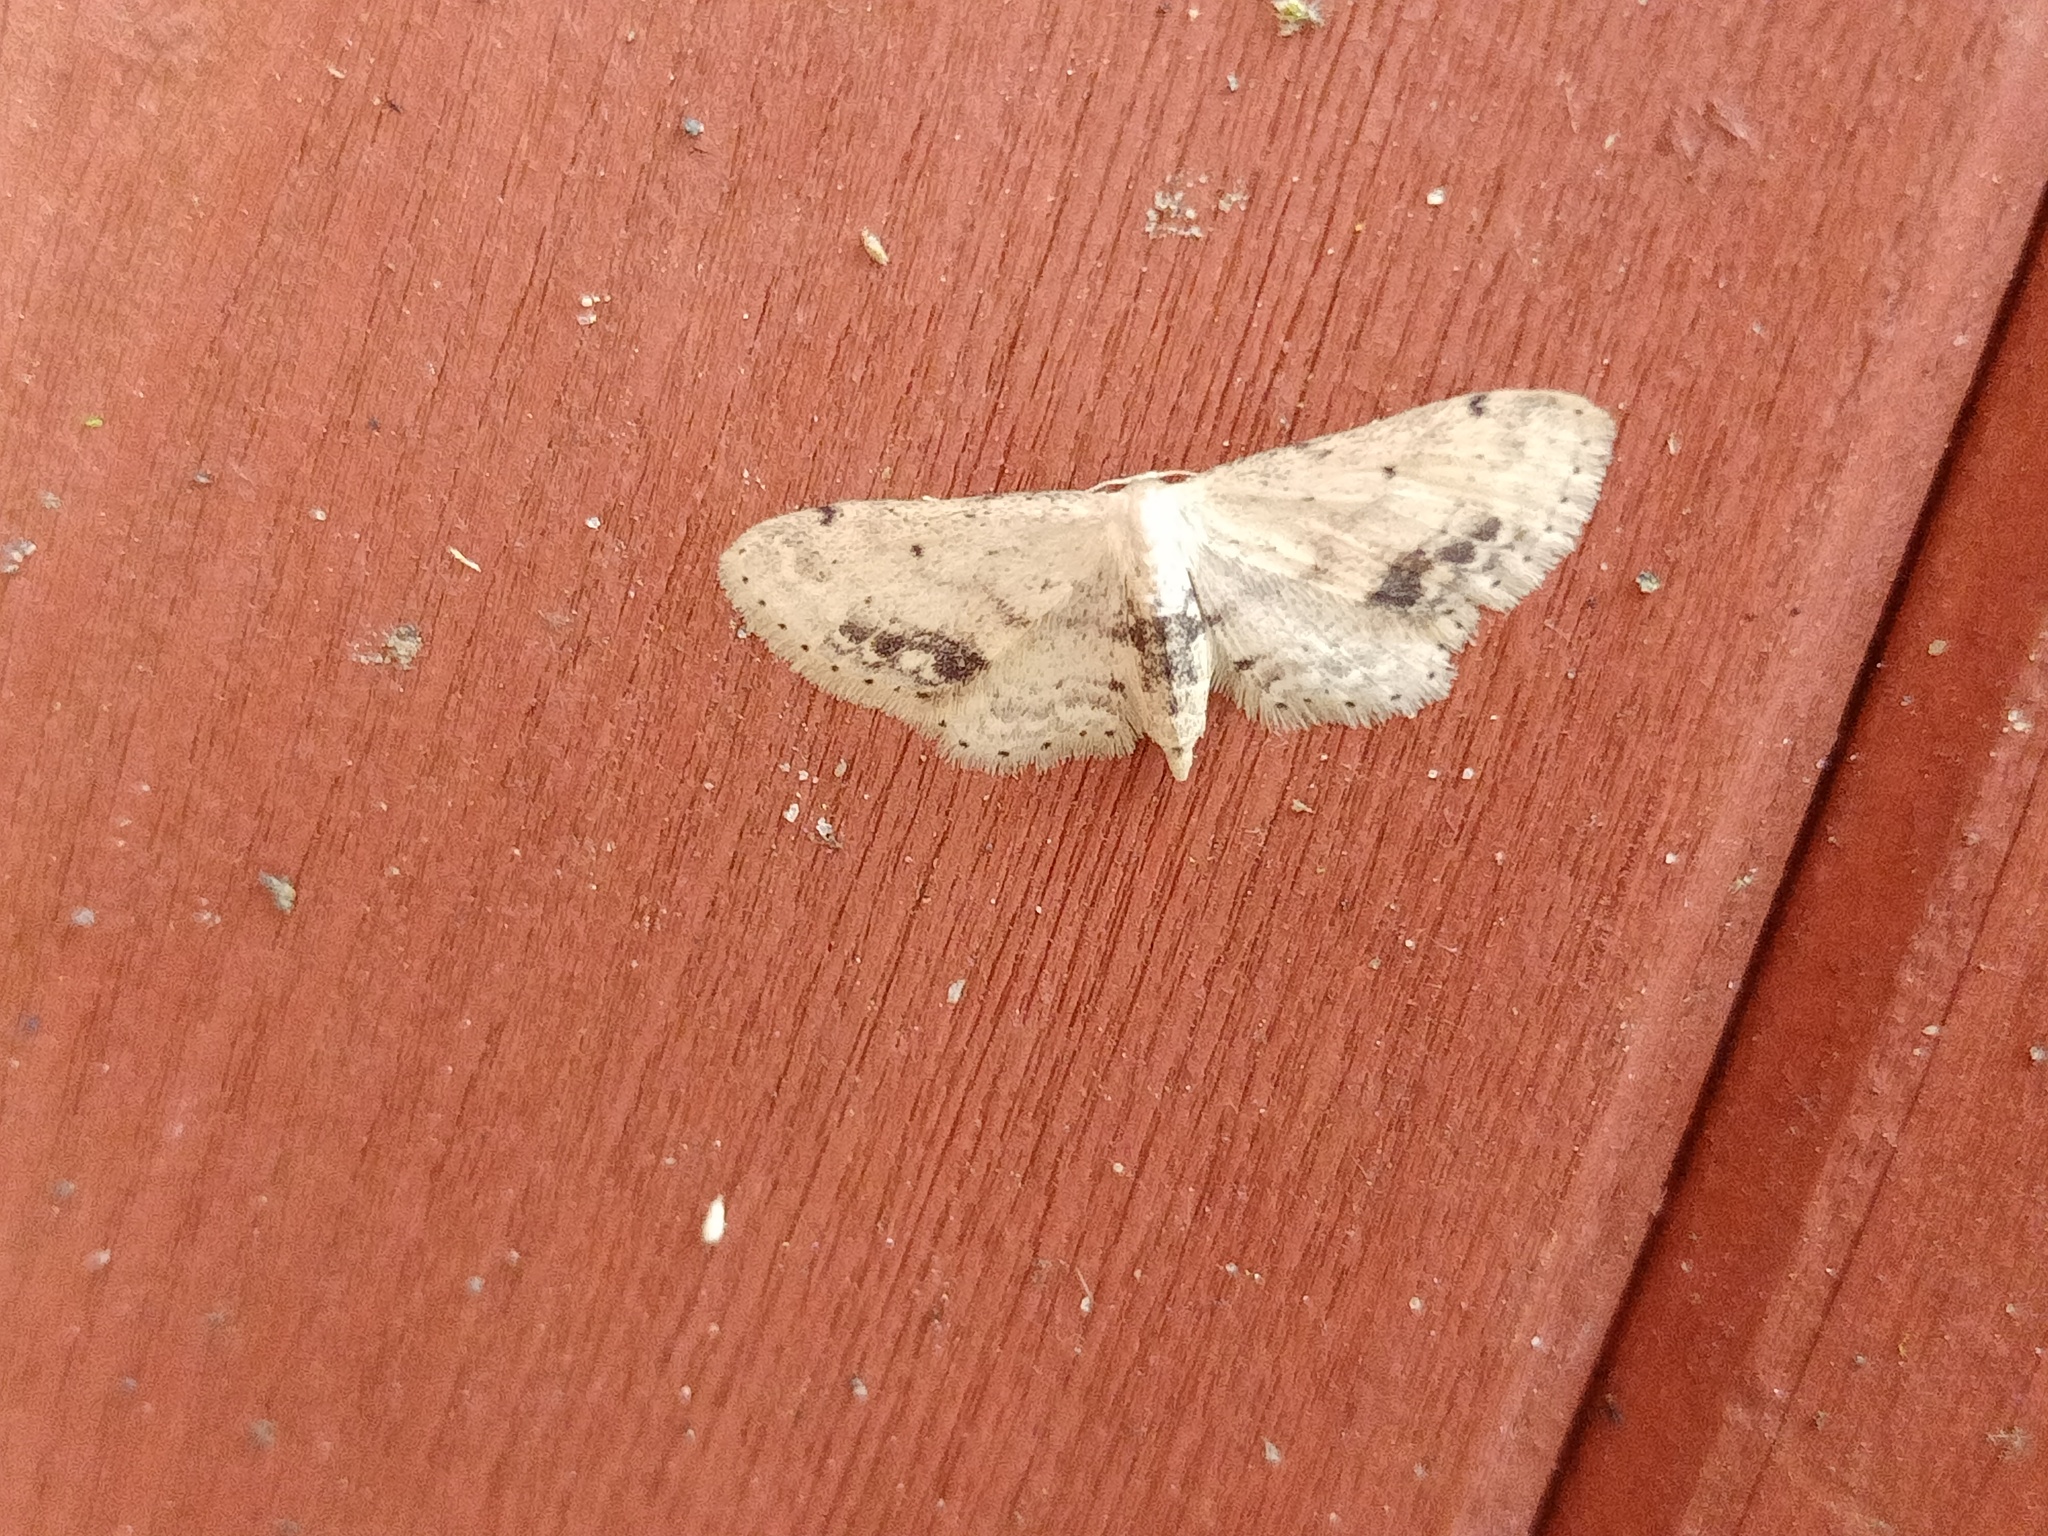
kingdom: Animalia
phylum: Arthropoda
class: Insecta
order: Lepidoptera
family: Geometridae
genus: Idaea
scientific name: Idaea dimidiata
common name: Single-dotted wave
